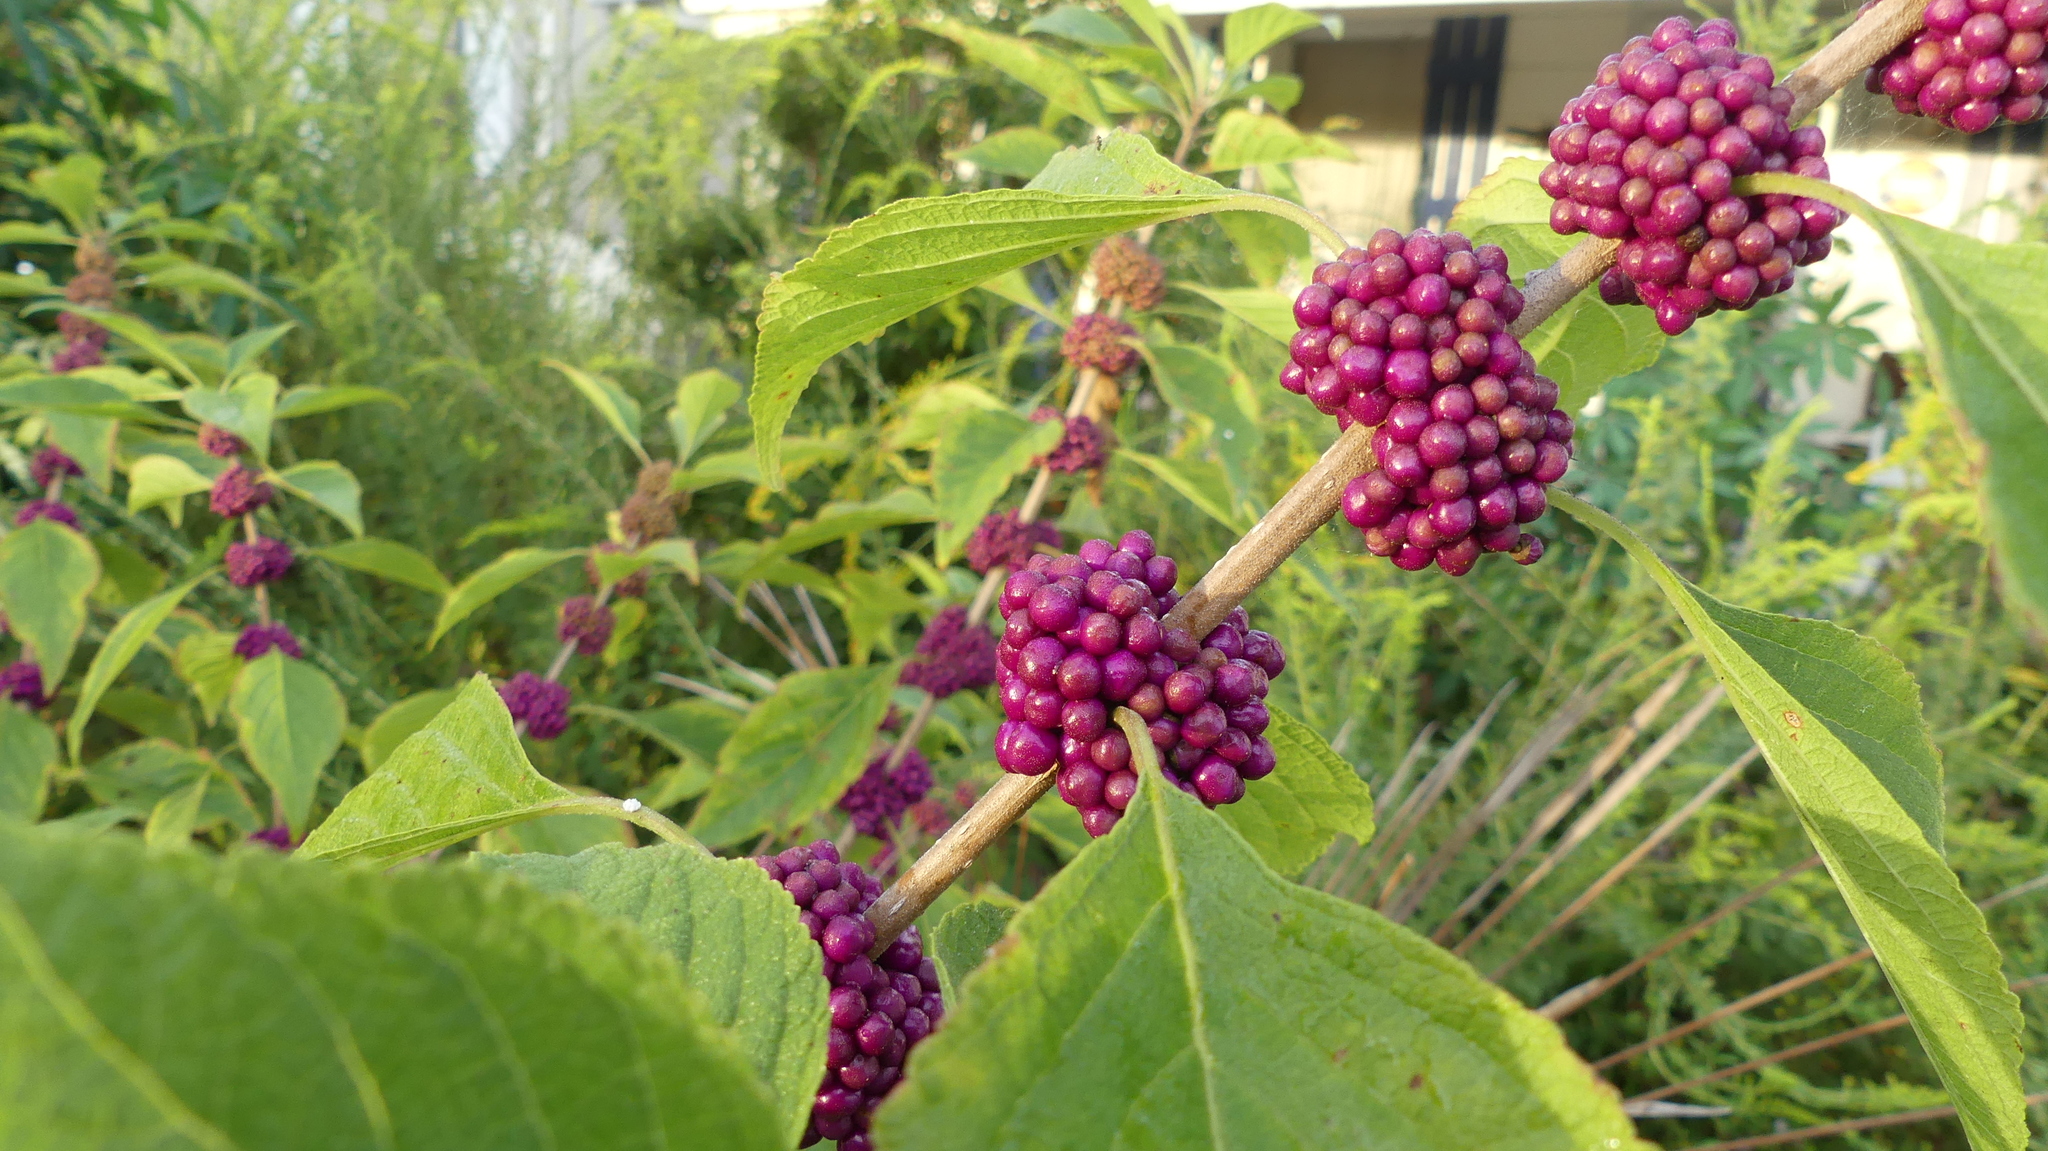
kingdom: Plantae
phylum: Tracheophyta
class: Magnoliopsida
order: Lamiales
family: Lamiaceae
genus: Callicarpa
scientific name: Callicarpa americana
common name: American beautyberry
